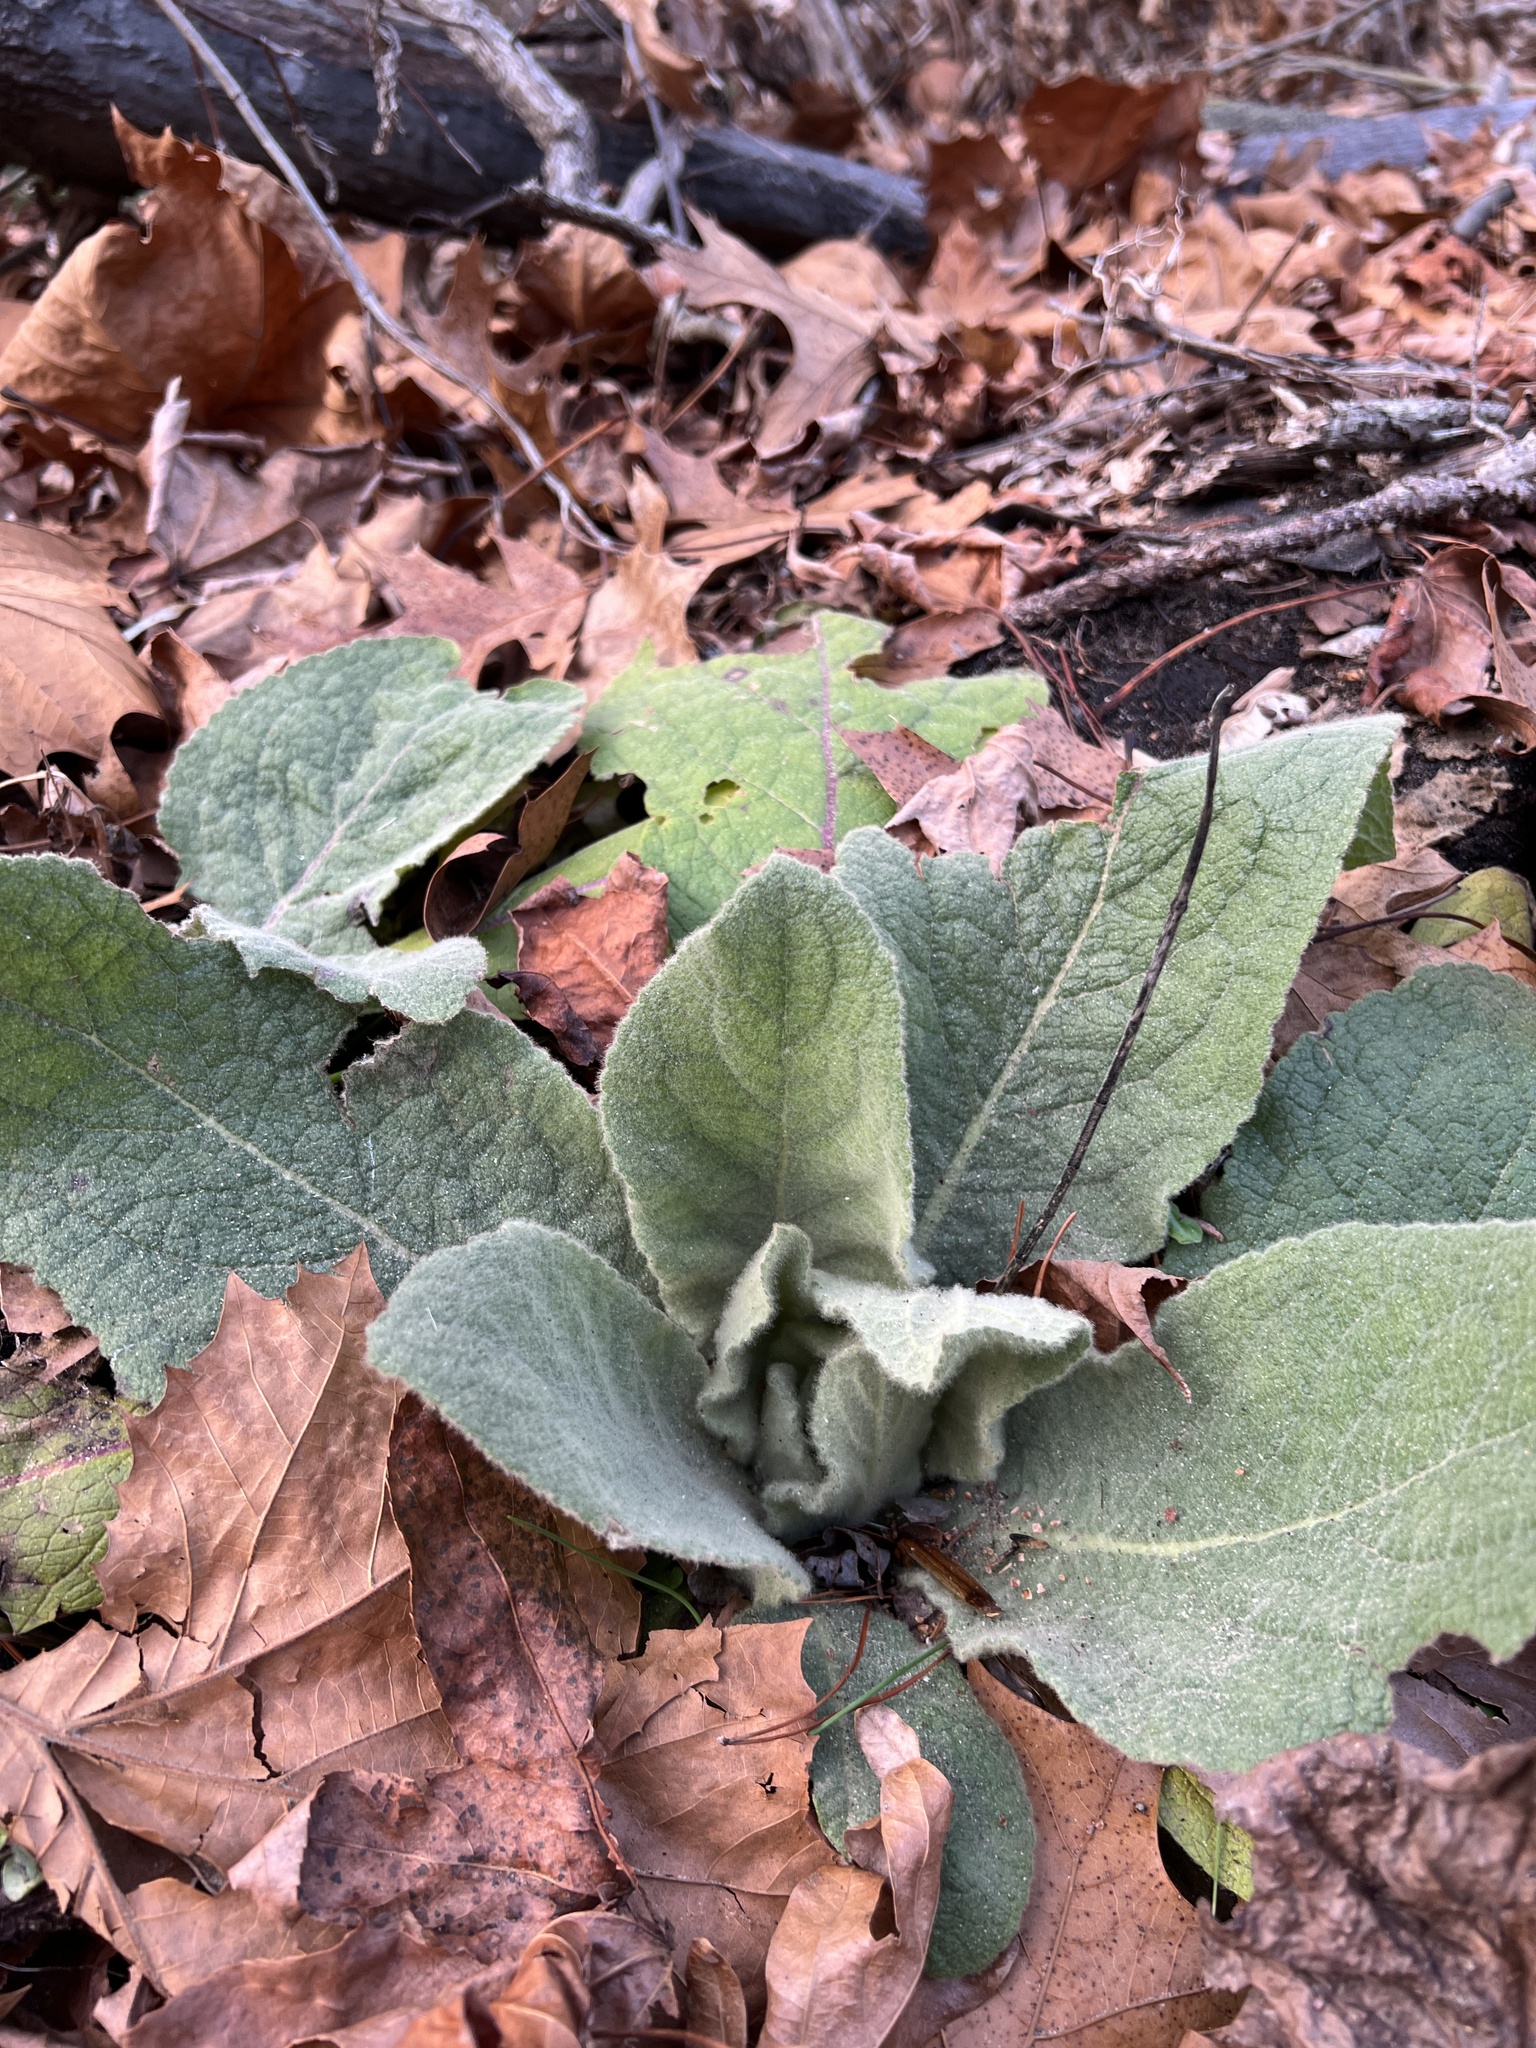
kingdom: Plantae
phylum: Tracheophyta
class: Magnoliopsida
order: Lamiales
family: Scrophulariaceae
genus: Verbascum
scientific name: Verbascum thapsus
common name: Common mullein
